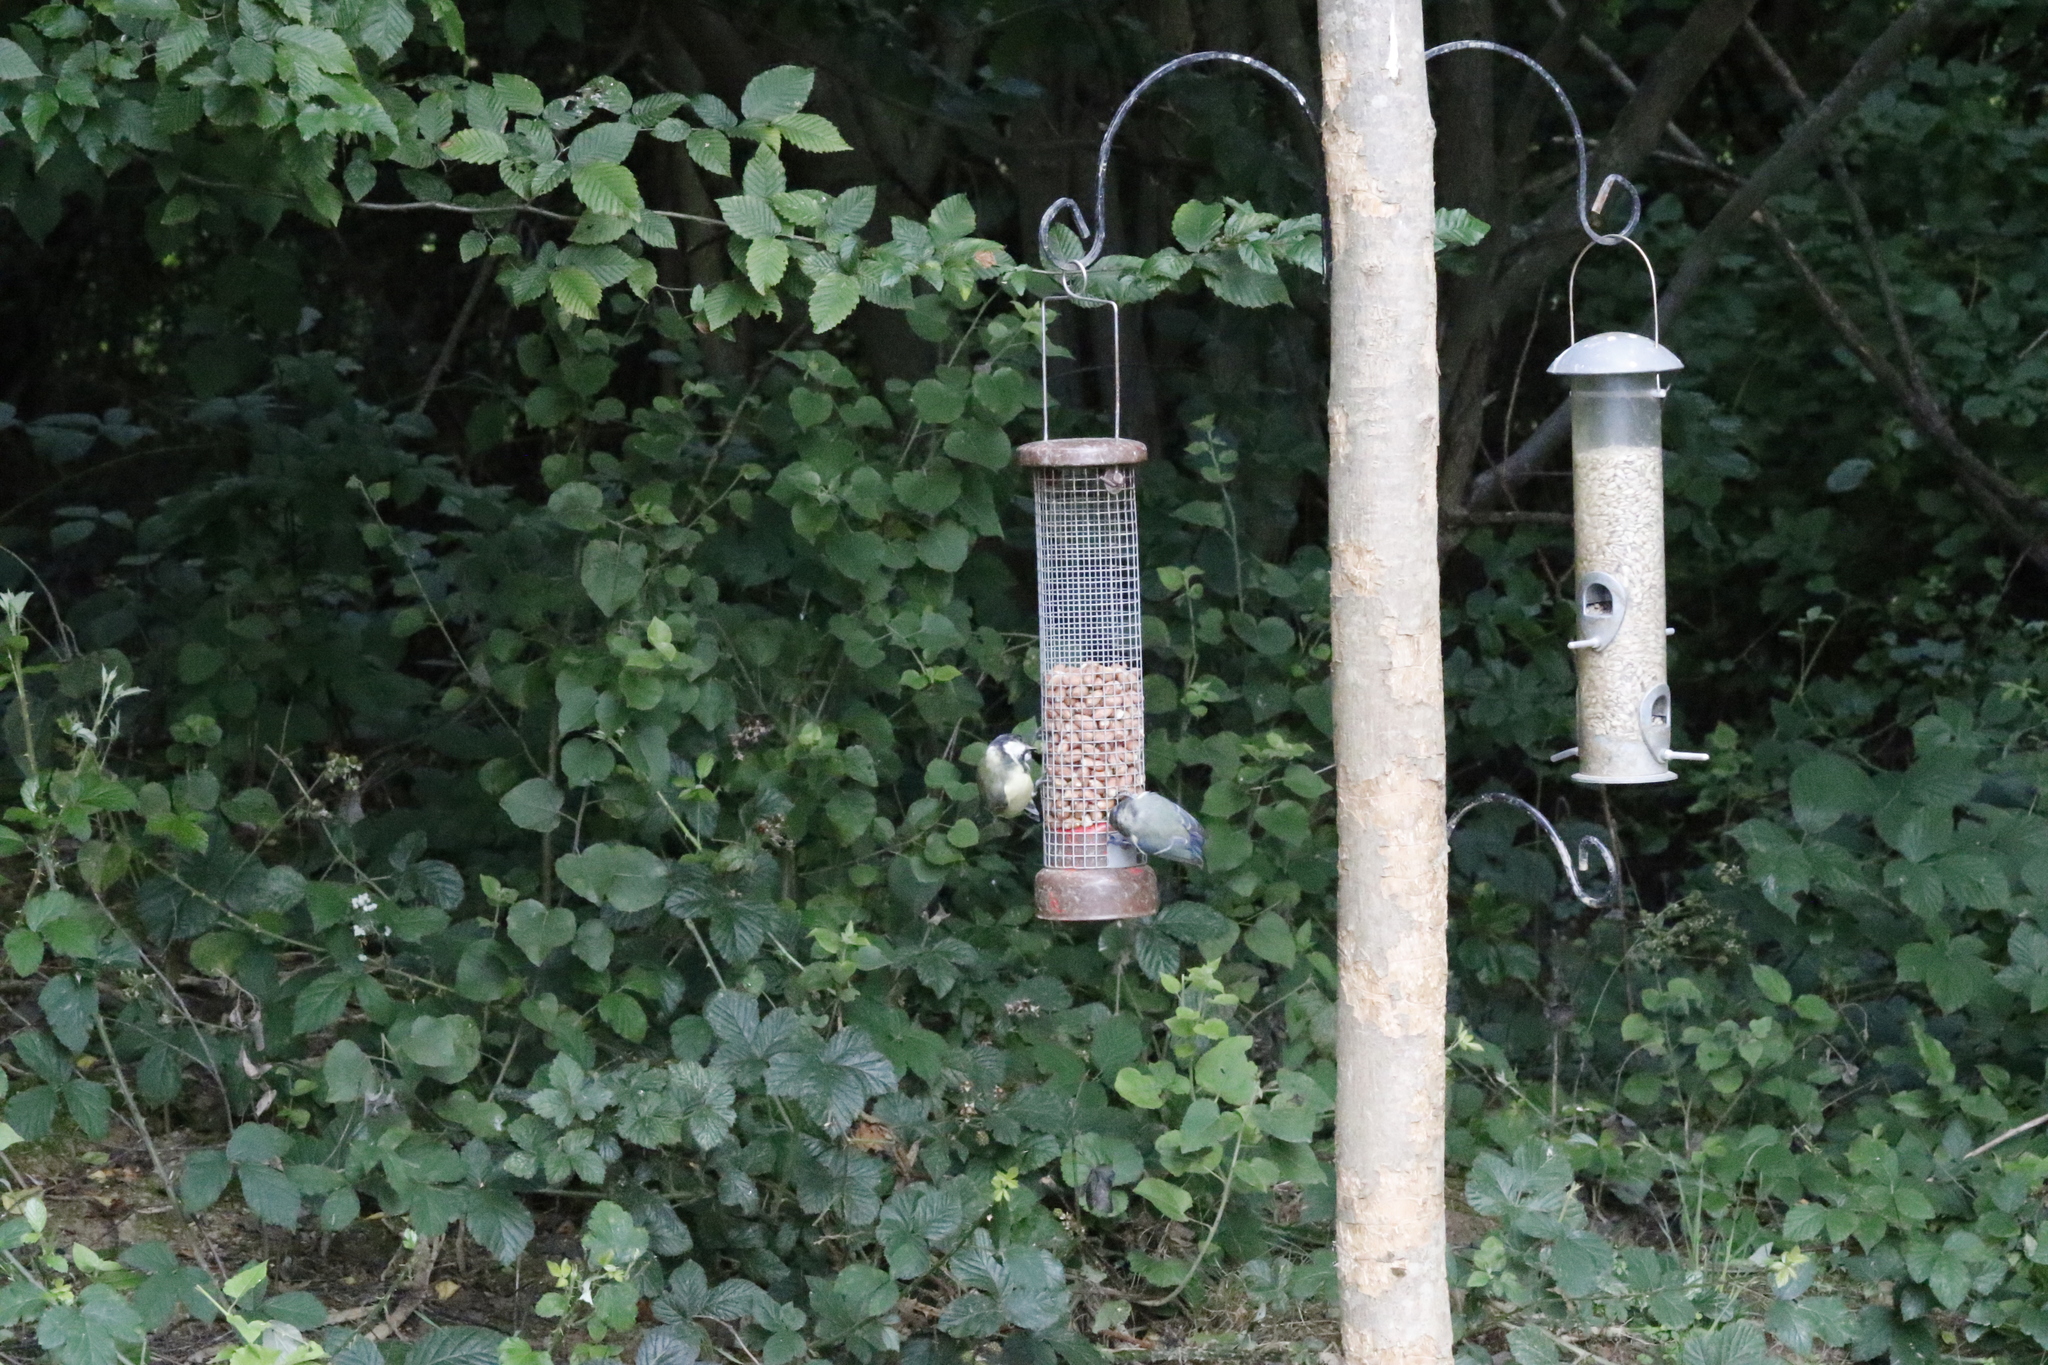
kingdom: Animalia
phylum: Chordata
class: Aves
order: Passeriformes
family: Paridae
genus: Cyanistes
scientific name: Cyanistes caeruleus
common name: Eurasian blue tit
